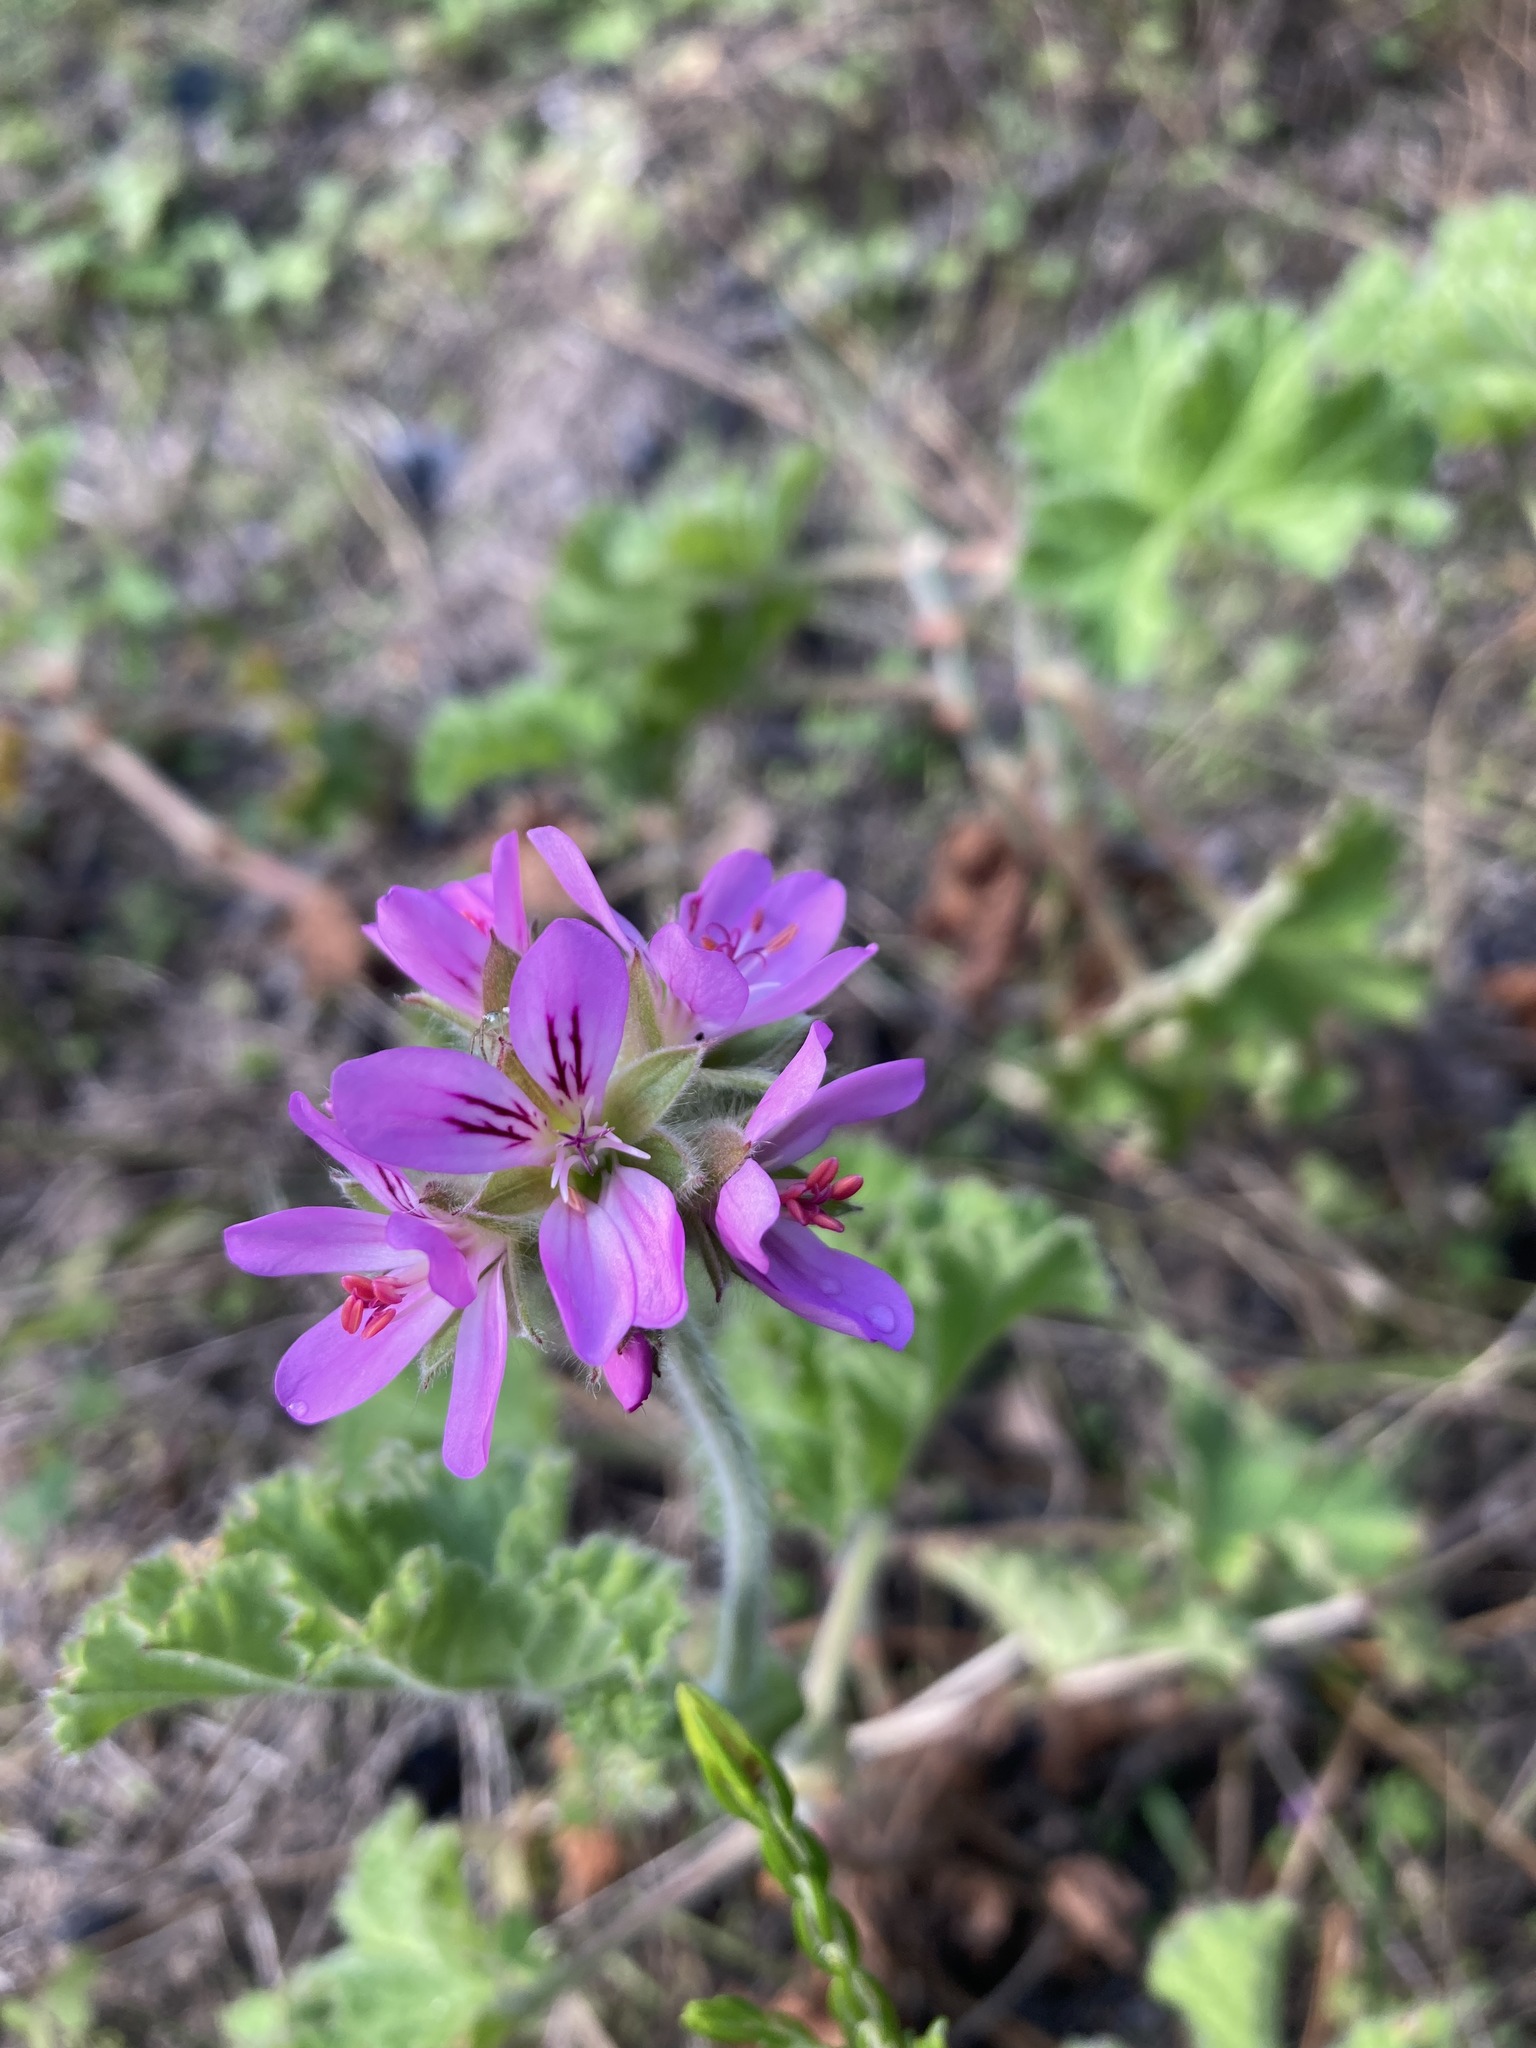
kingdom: Plantae
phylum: Tracheophyta
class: Magnoliopsida
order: Geraniales
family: Geraniaceae
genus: Pelargonium
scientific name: Pelargonium capitatum
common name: Rose scented geranium
